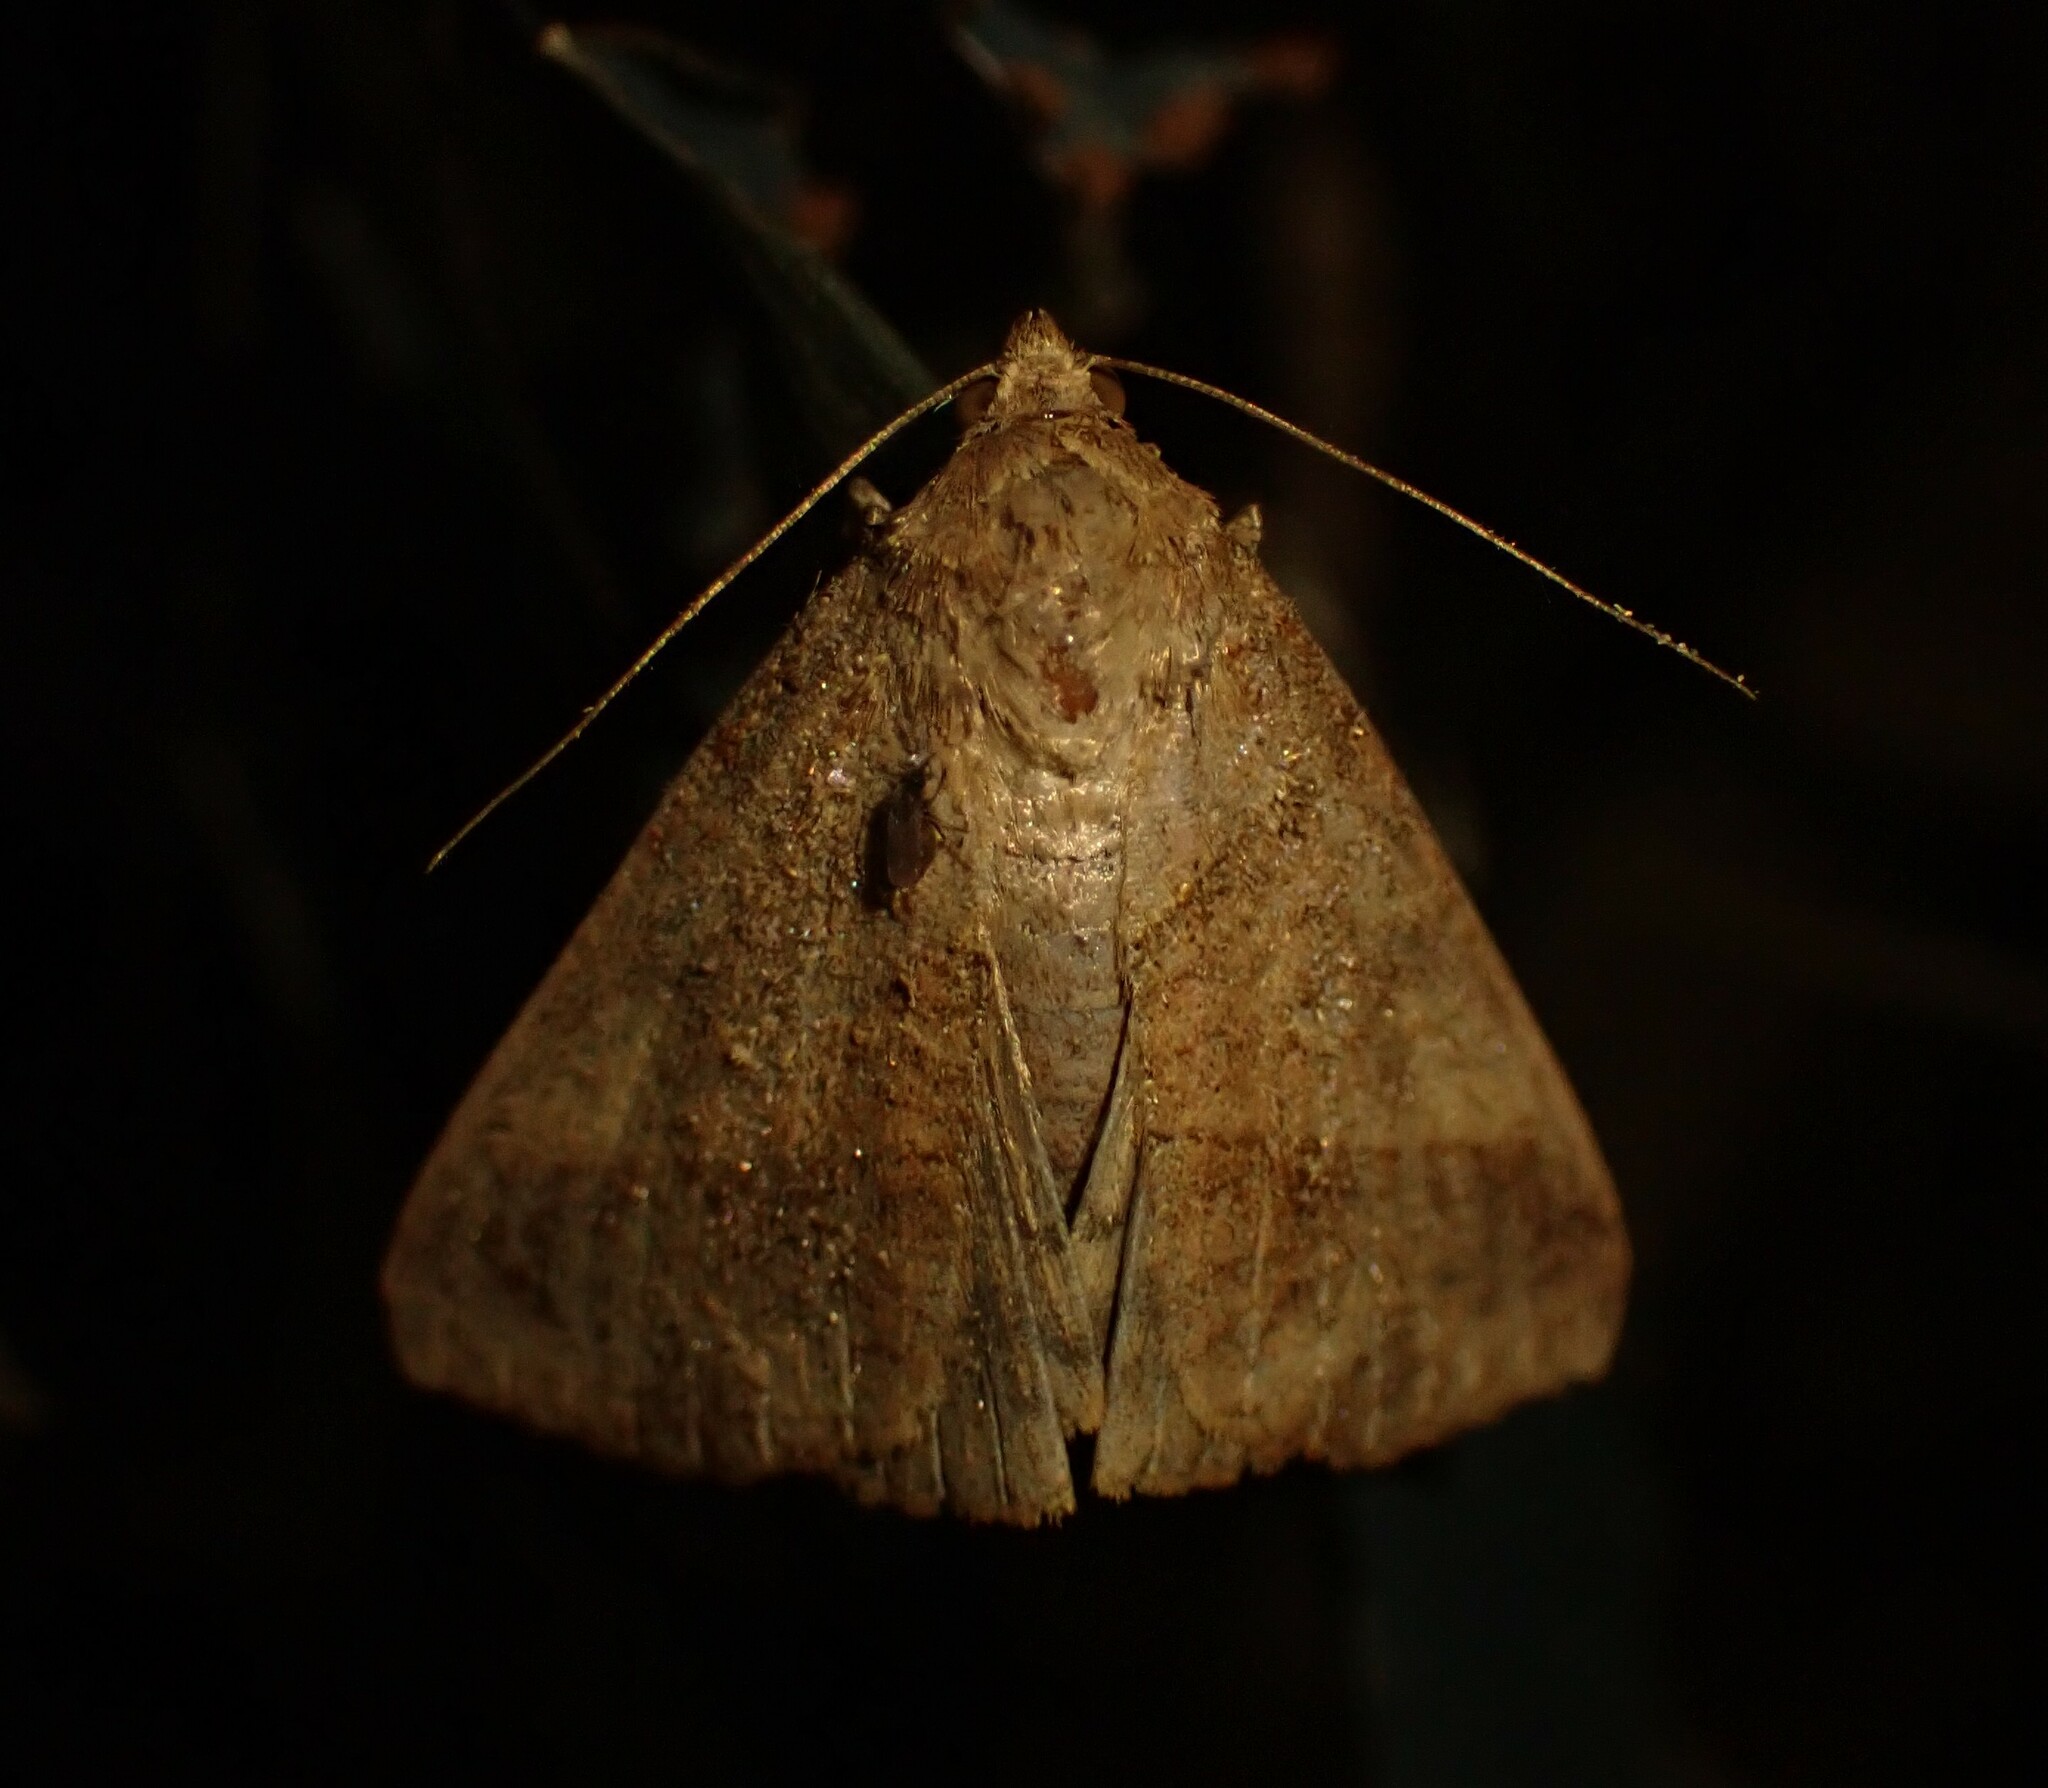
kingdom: Animalia
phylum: Arthropoda
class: Insecta
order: Lepidoptera
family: Erebidae
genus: Mocis
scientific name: Mocis latipes
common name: Striped grass looper
